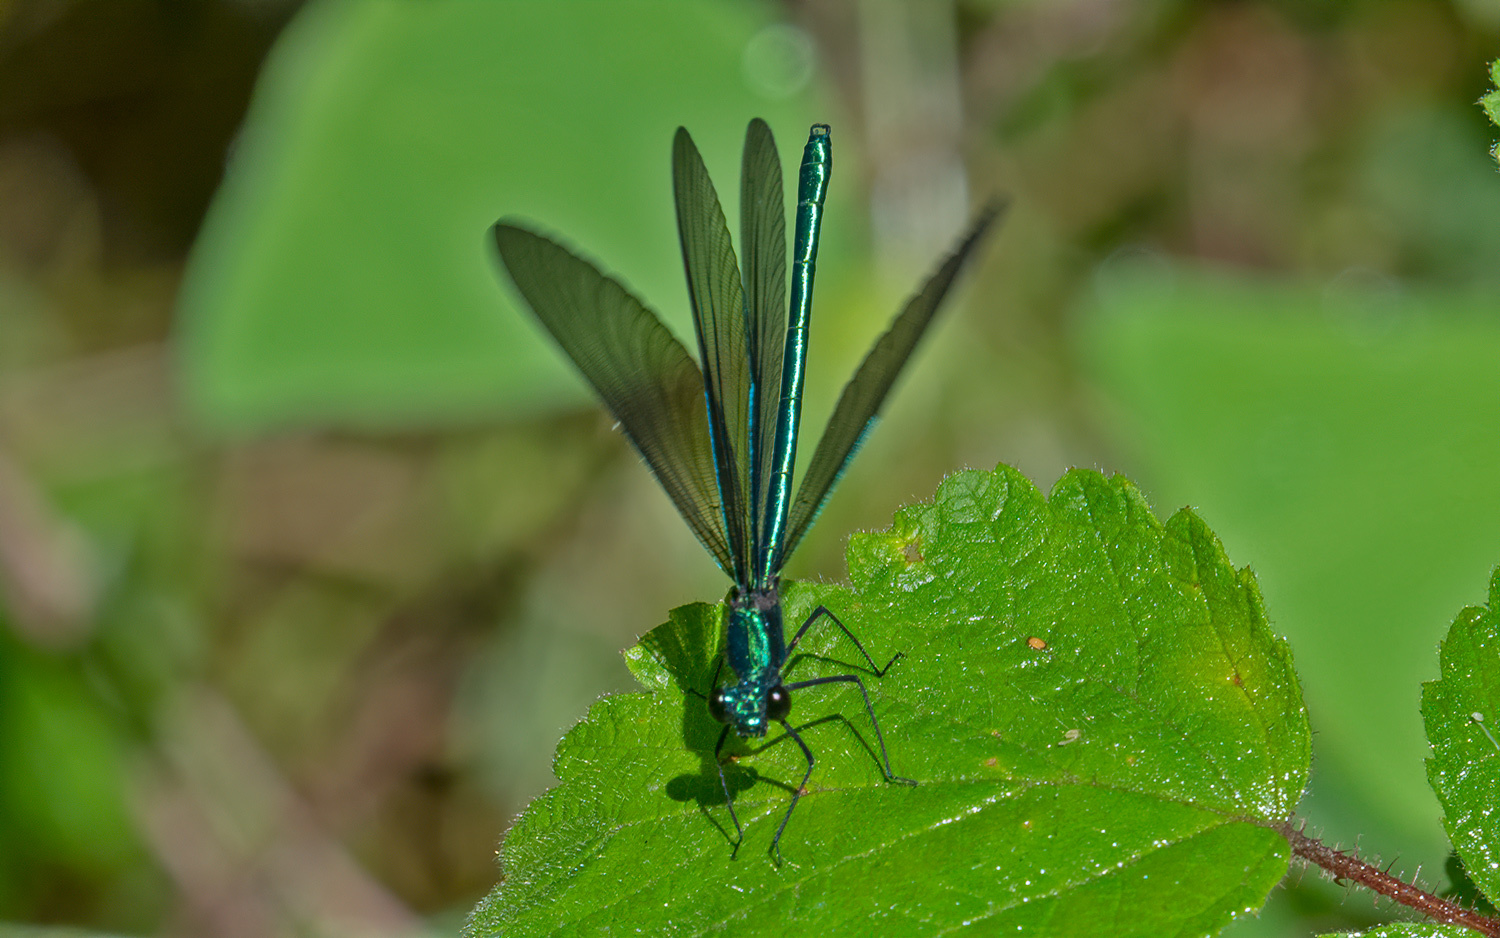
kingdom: Animalia
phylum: Arthropoda
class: Insecta
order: Odonata
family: Calopterygidae
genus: Calopteryx
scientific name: Calopteryx maculata
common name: Ebony jewelwing
